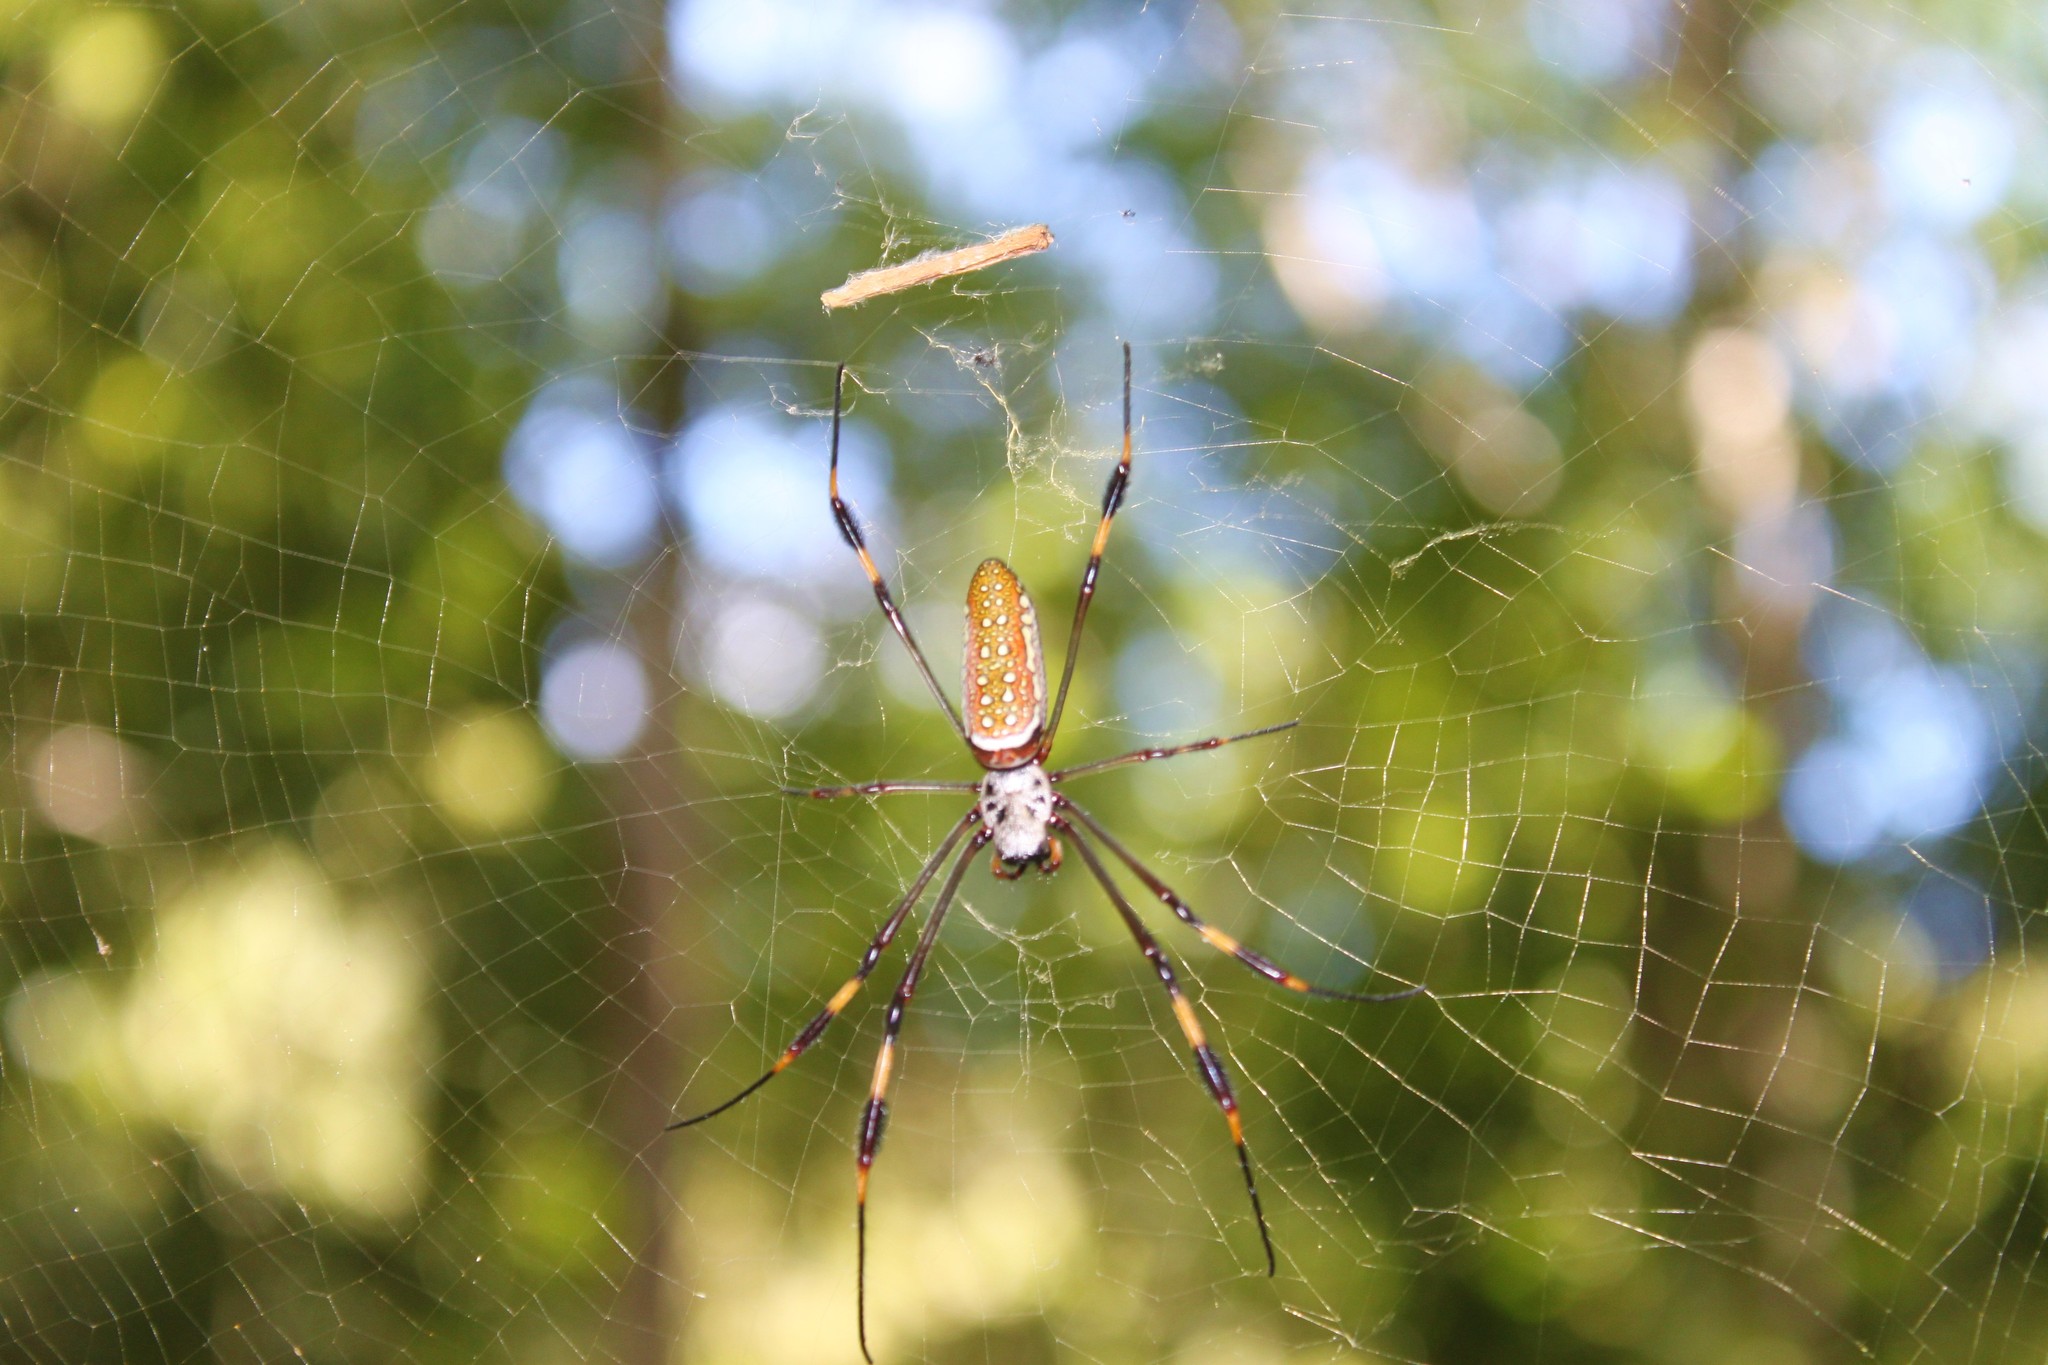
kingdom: Animalia
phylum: Arthropoda
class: Arachnida
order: Araneae
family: Araneidae
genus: Trichonephila
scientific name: Trichonephila clavipes
